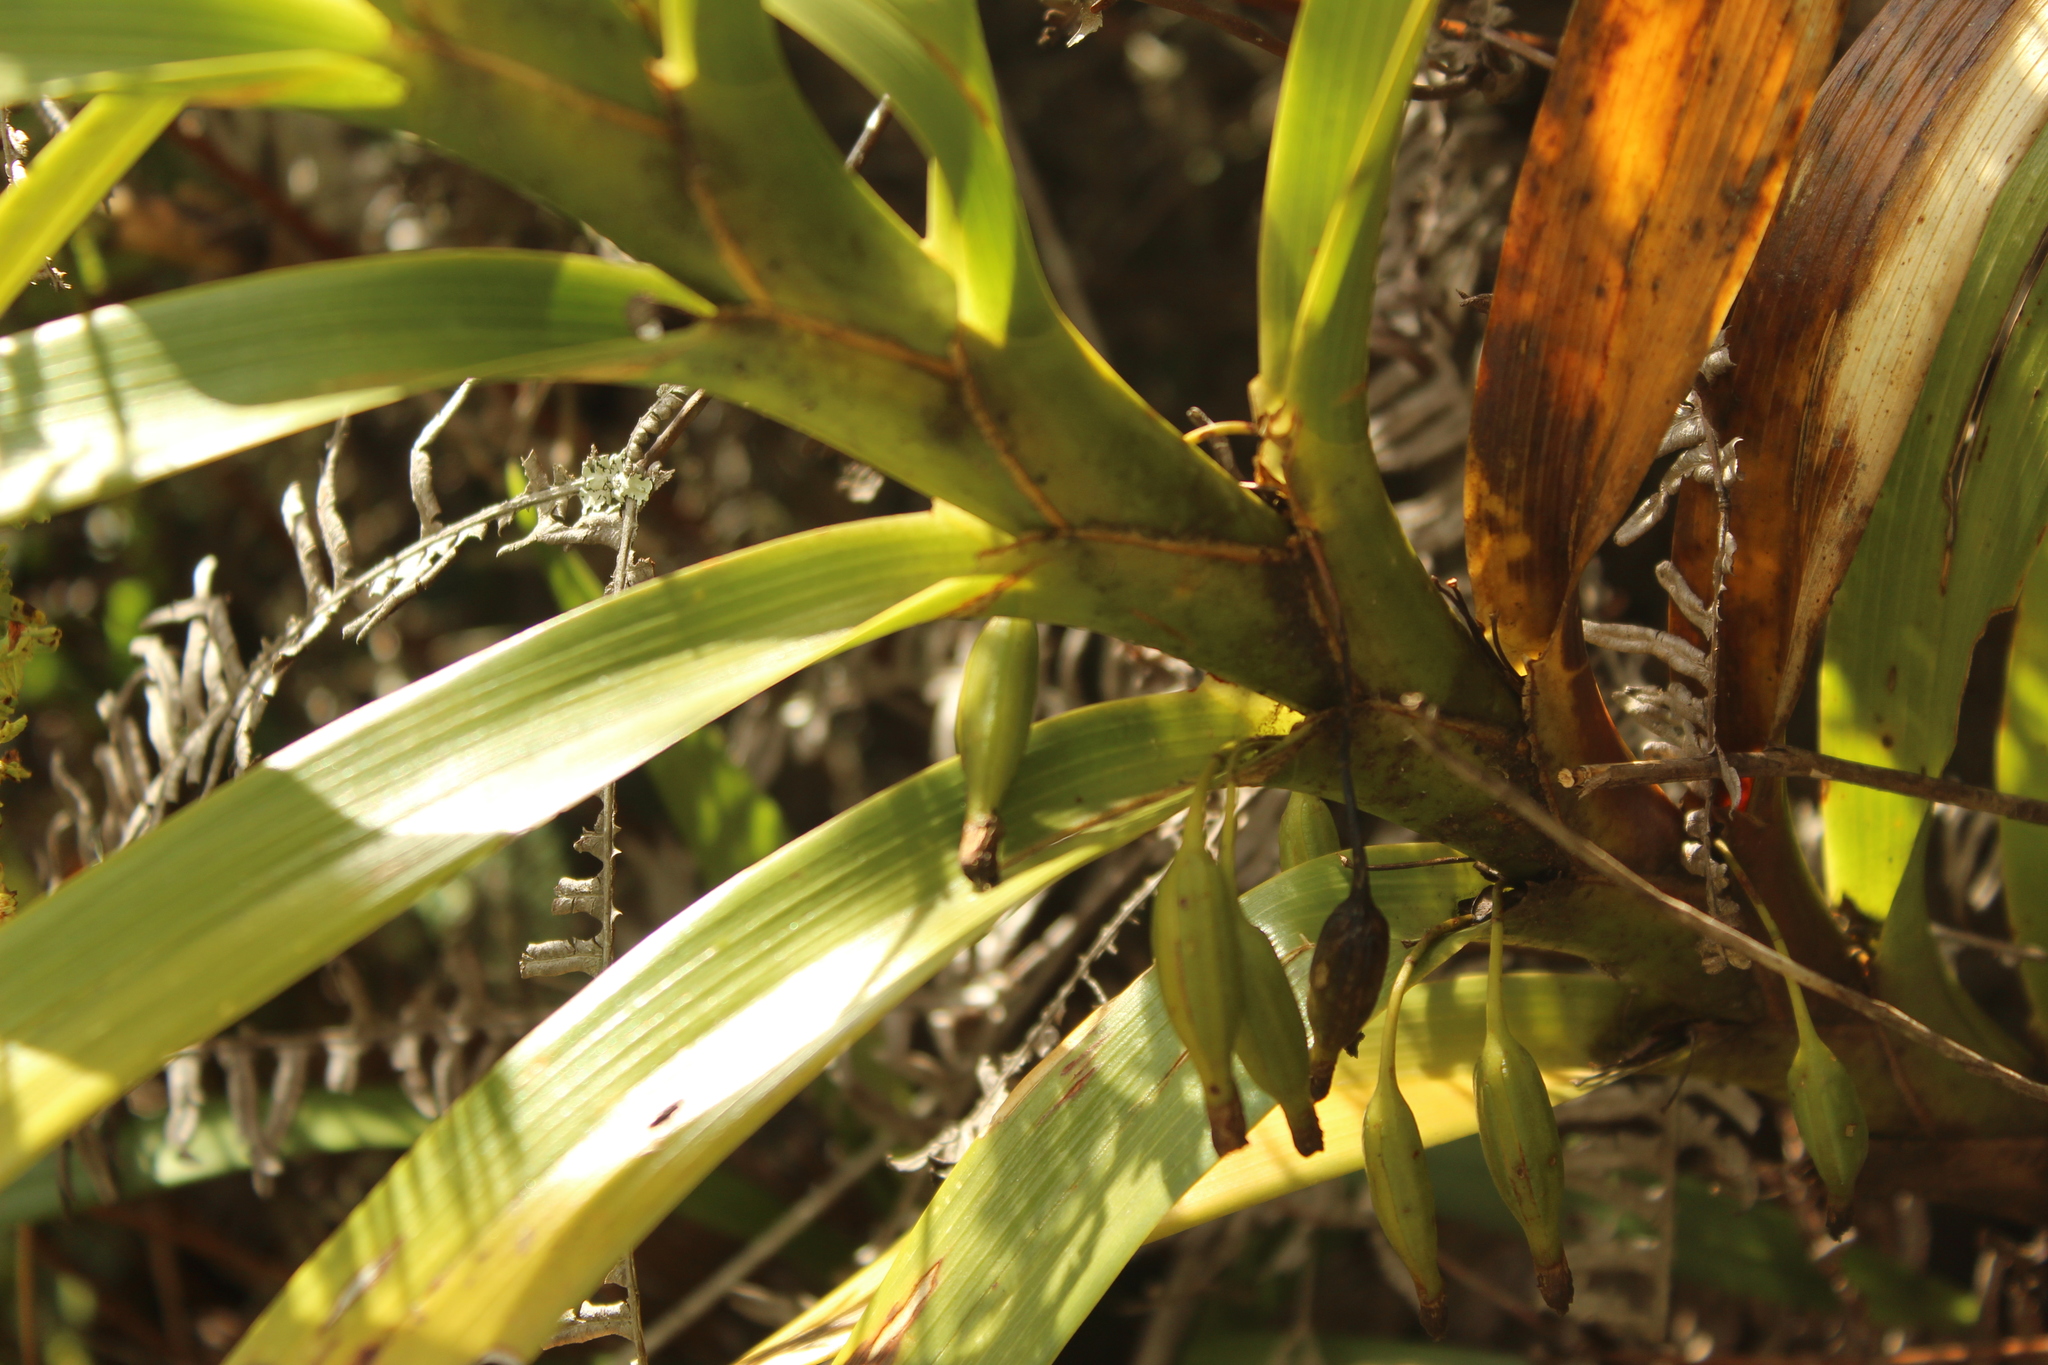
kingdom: Plantae
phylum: Tracheophyta
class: Liliopsida
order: Asparagales
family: Orchidaceae
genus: Maxillaria
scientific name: Maxillaria aurea
